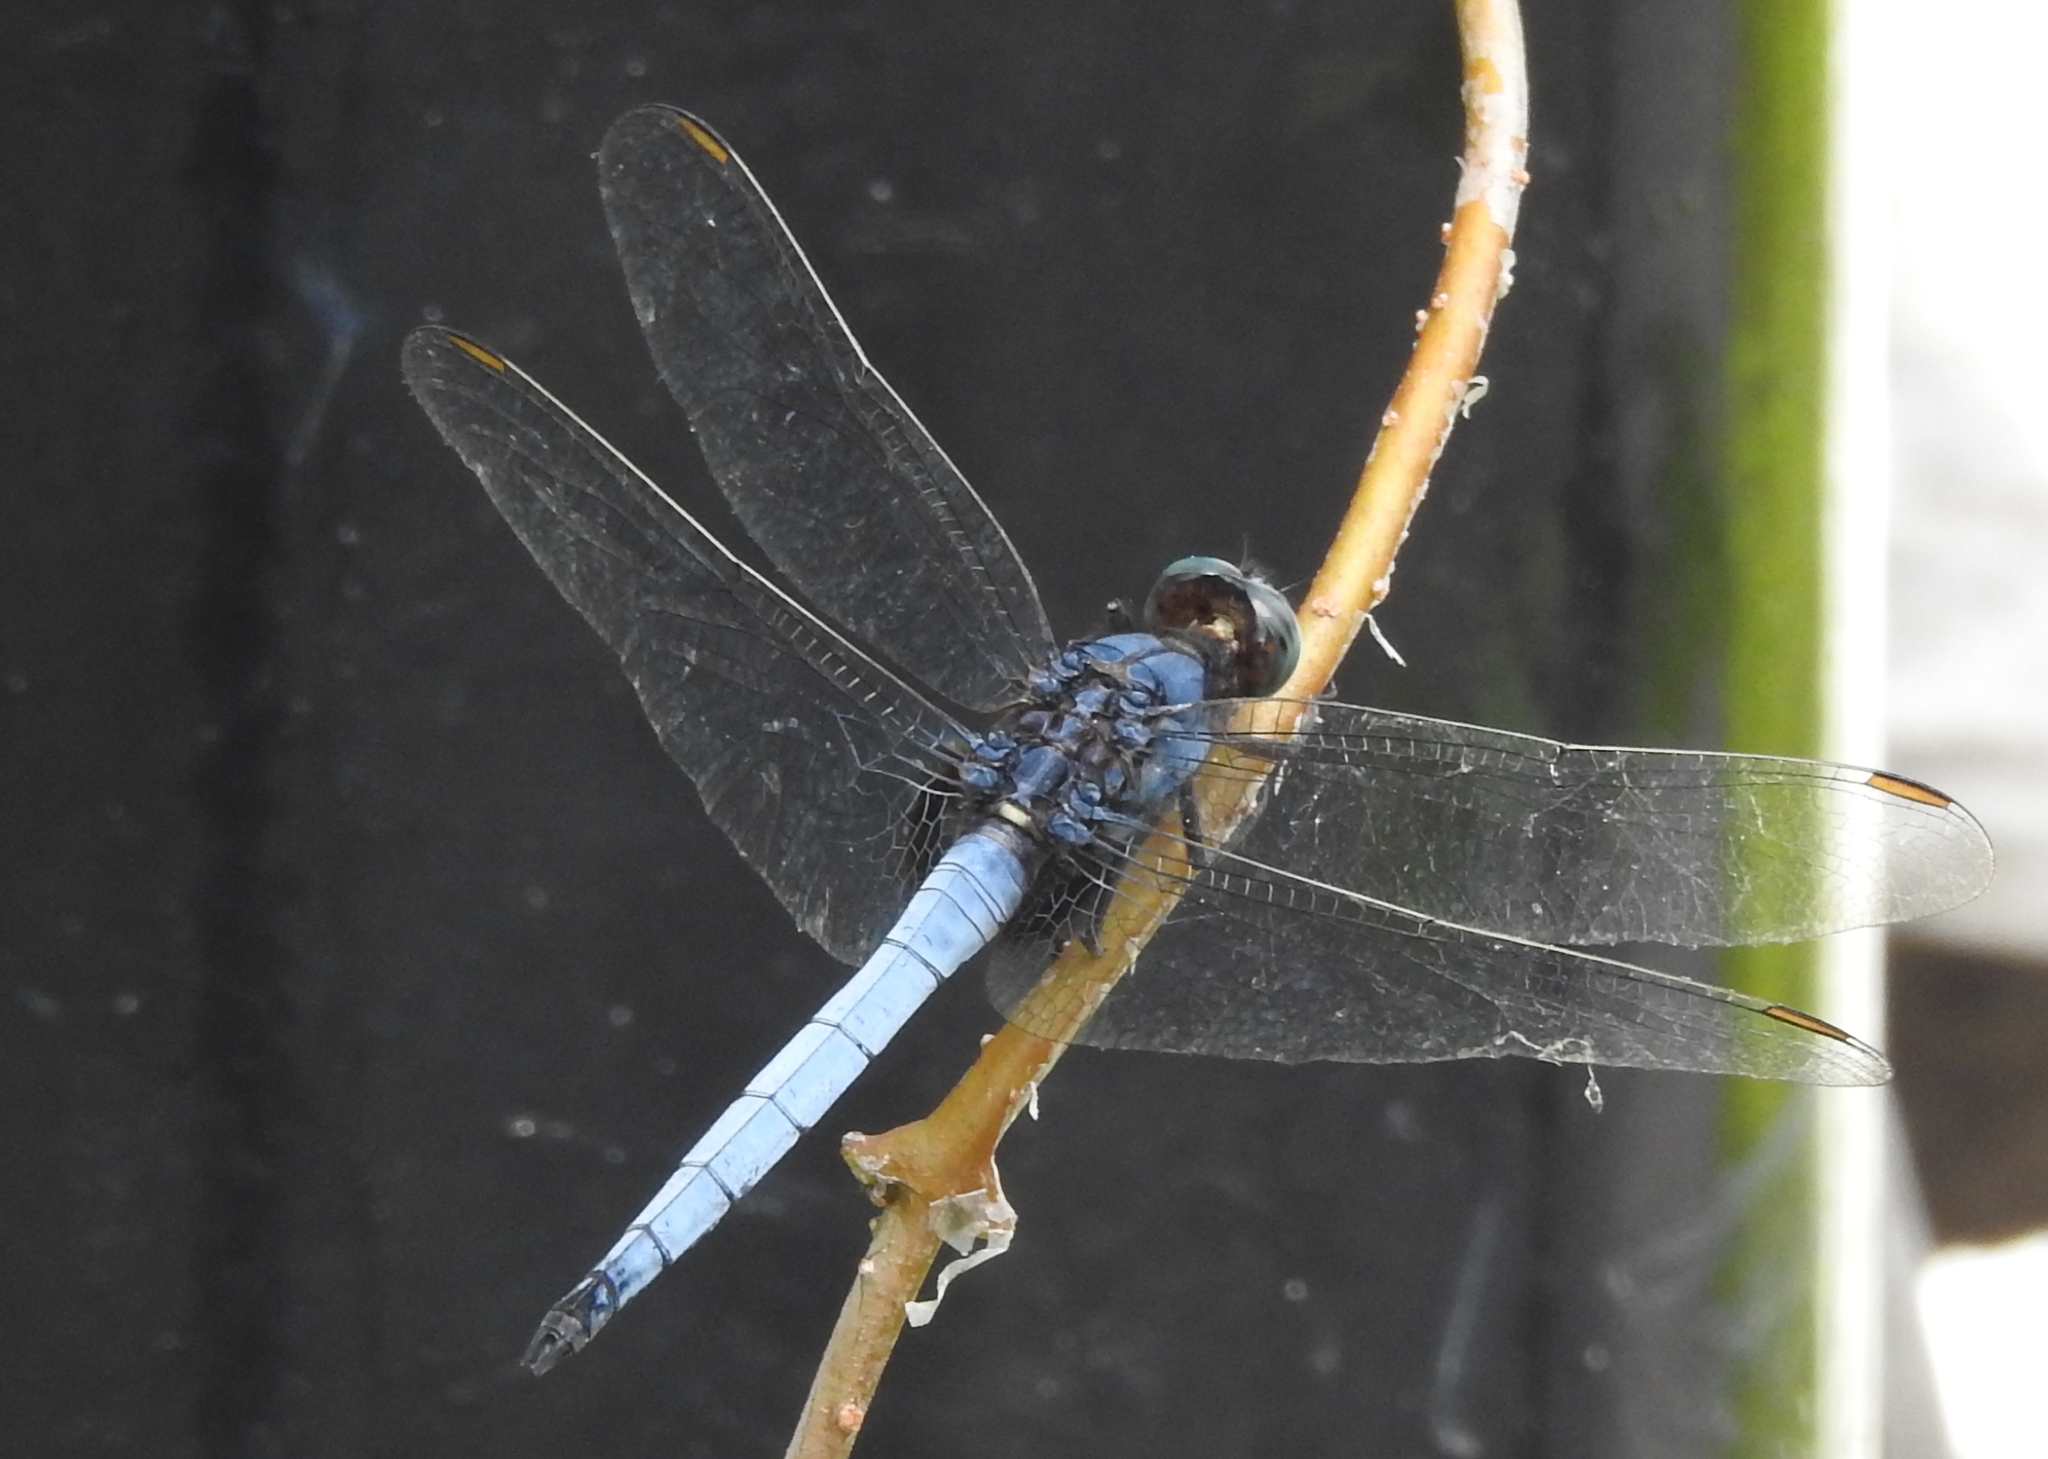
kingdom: Animalia
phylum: Arthropoda
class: Insecta
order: Odonata
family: Libellulidae
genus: Orthetrum
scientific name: Orthetrum glaucum
